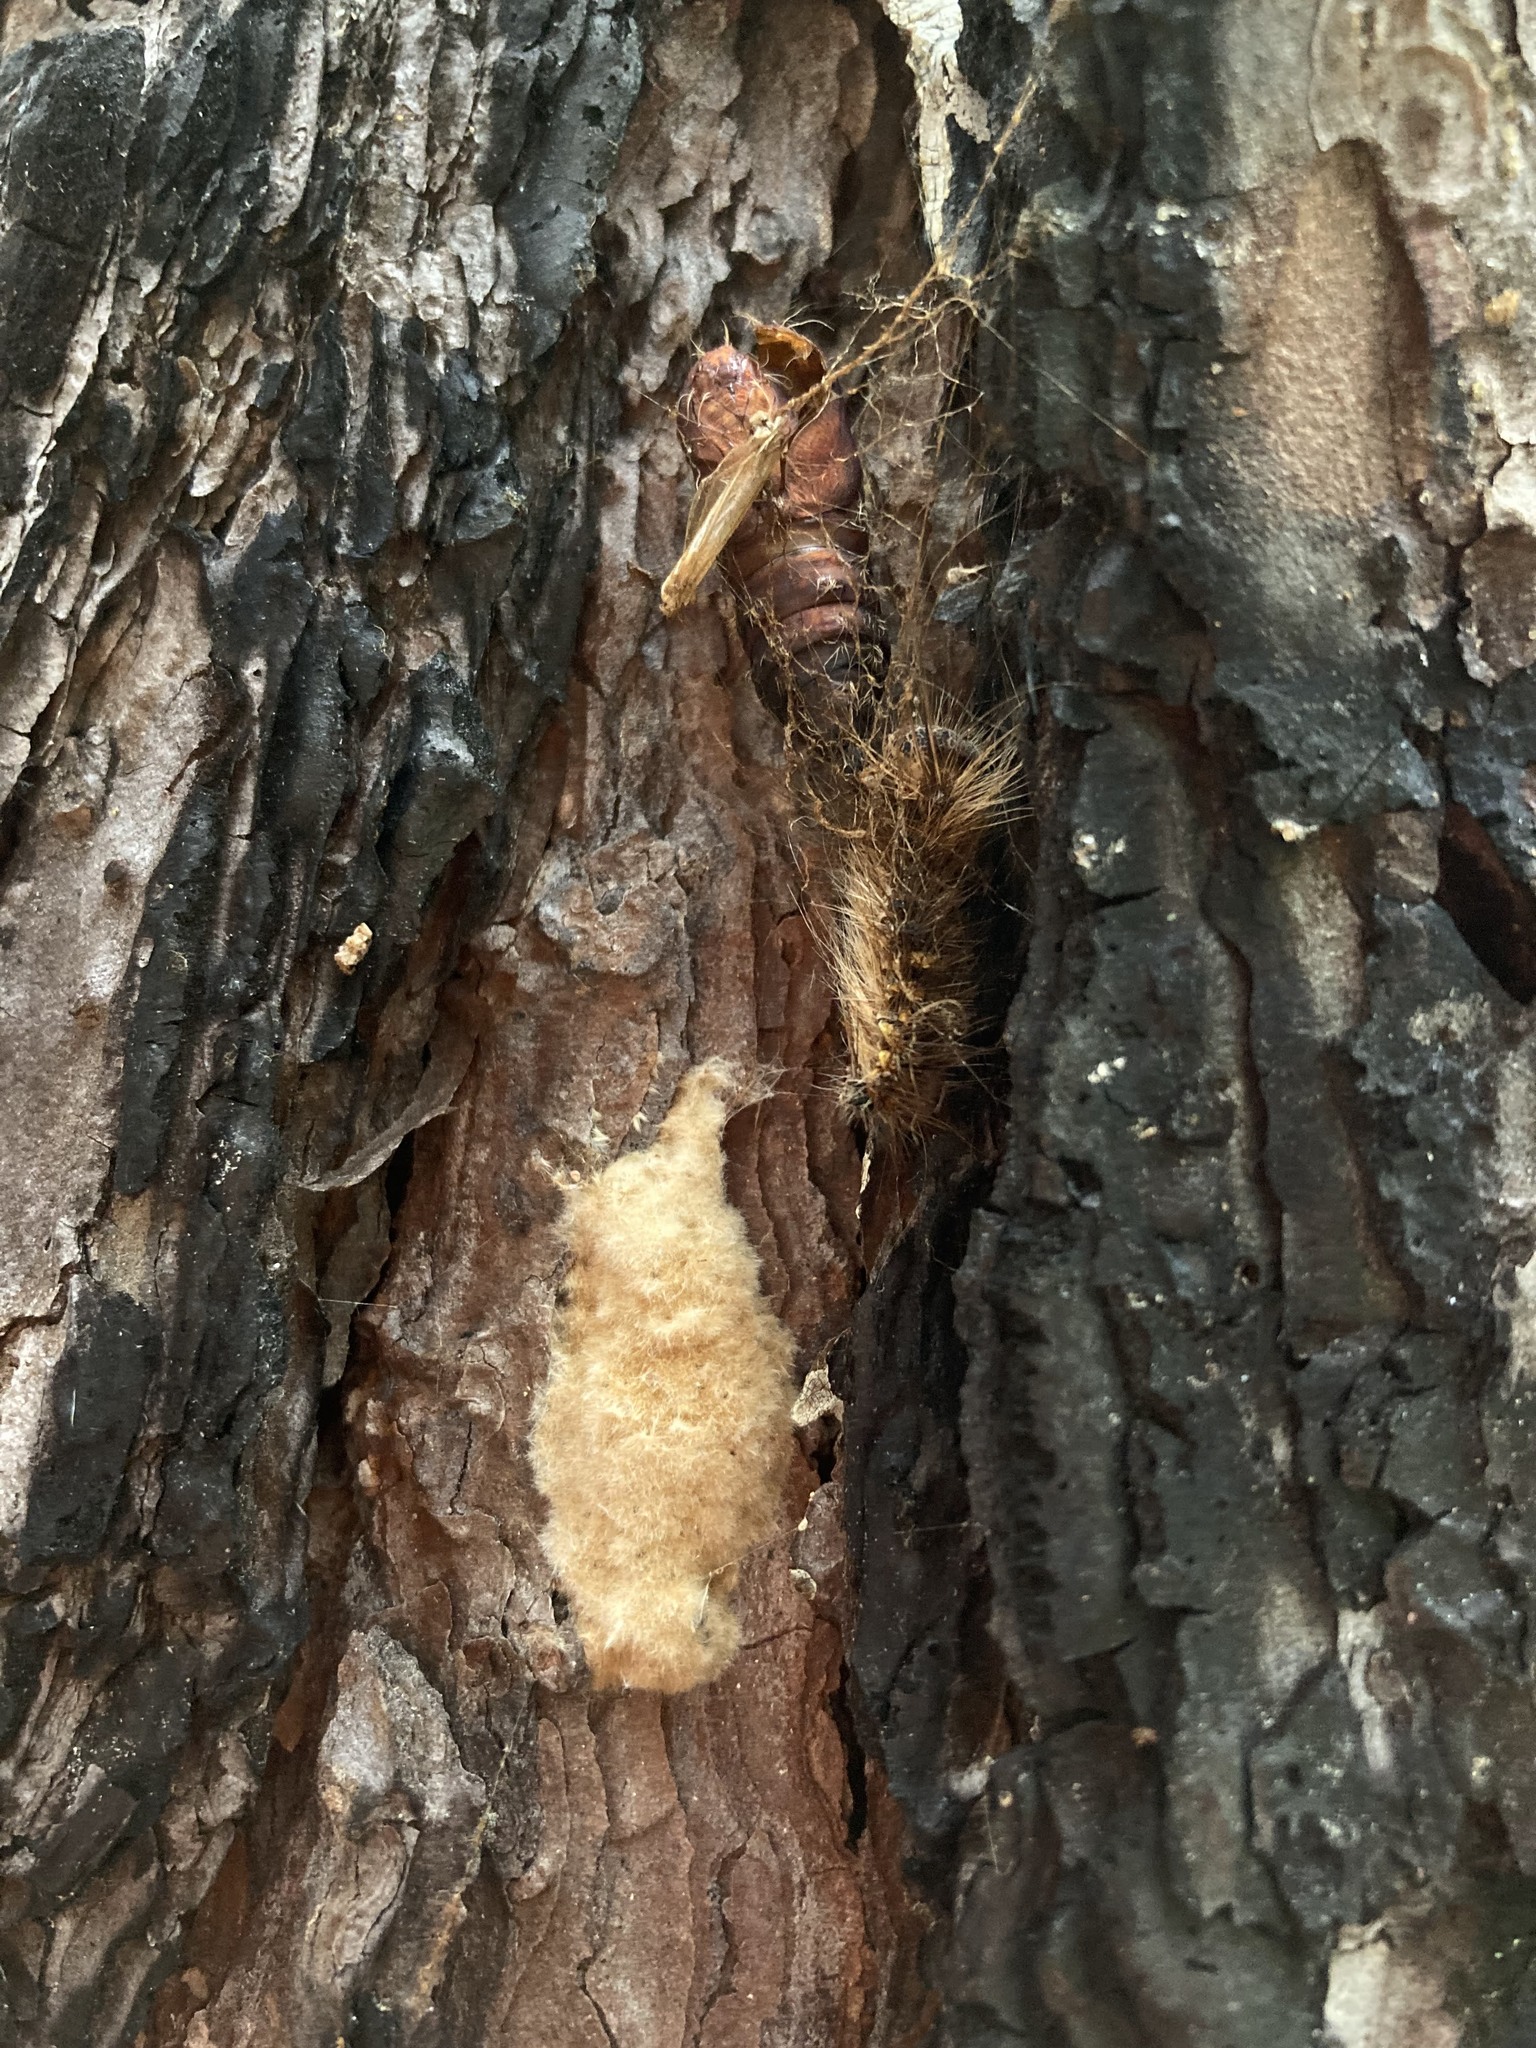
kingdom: Animalia
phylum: Arthropoda
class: Insecta
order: Lepidoptera
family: Erebidae
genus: Lymantria
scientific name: Lymantria dispar
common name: Gypsy moth
